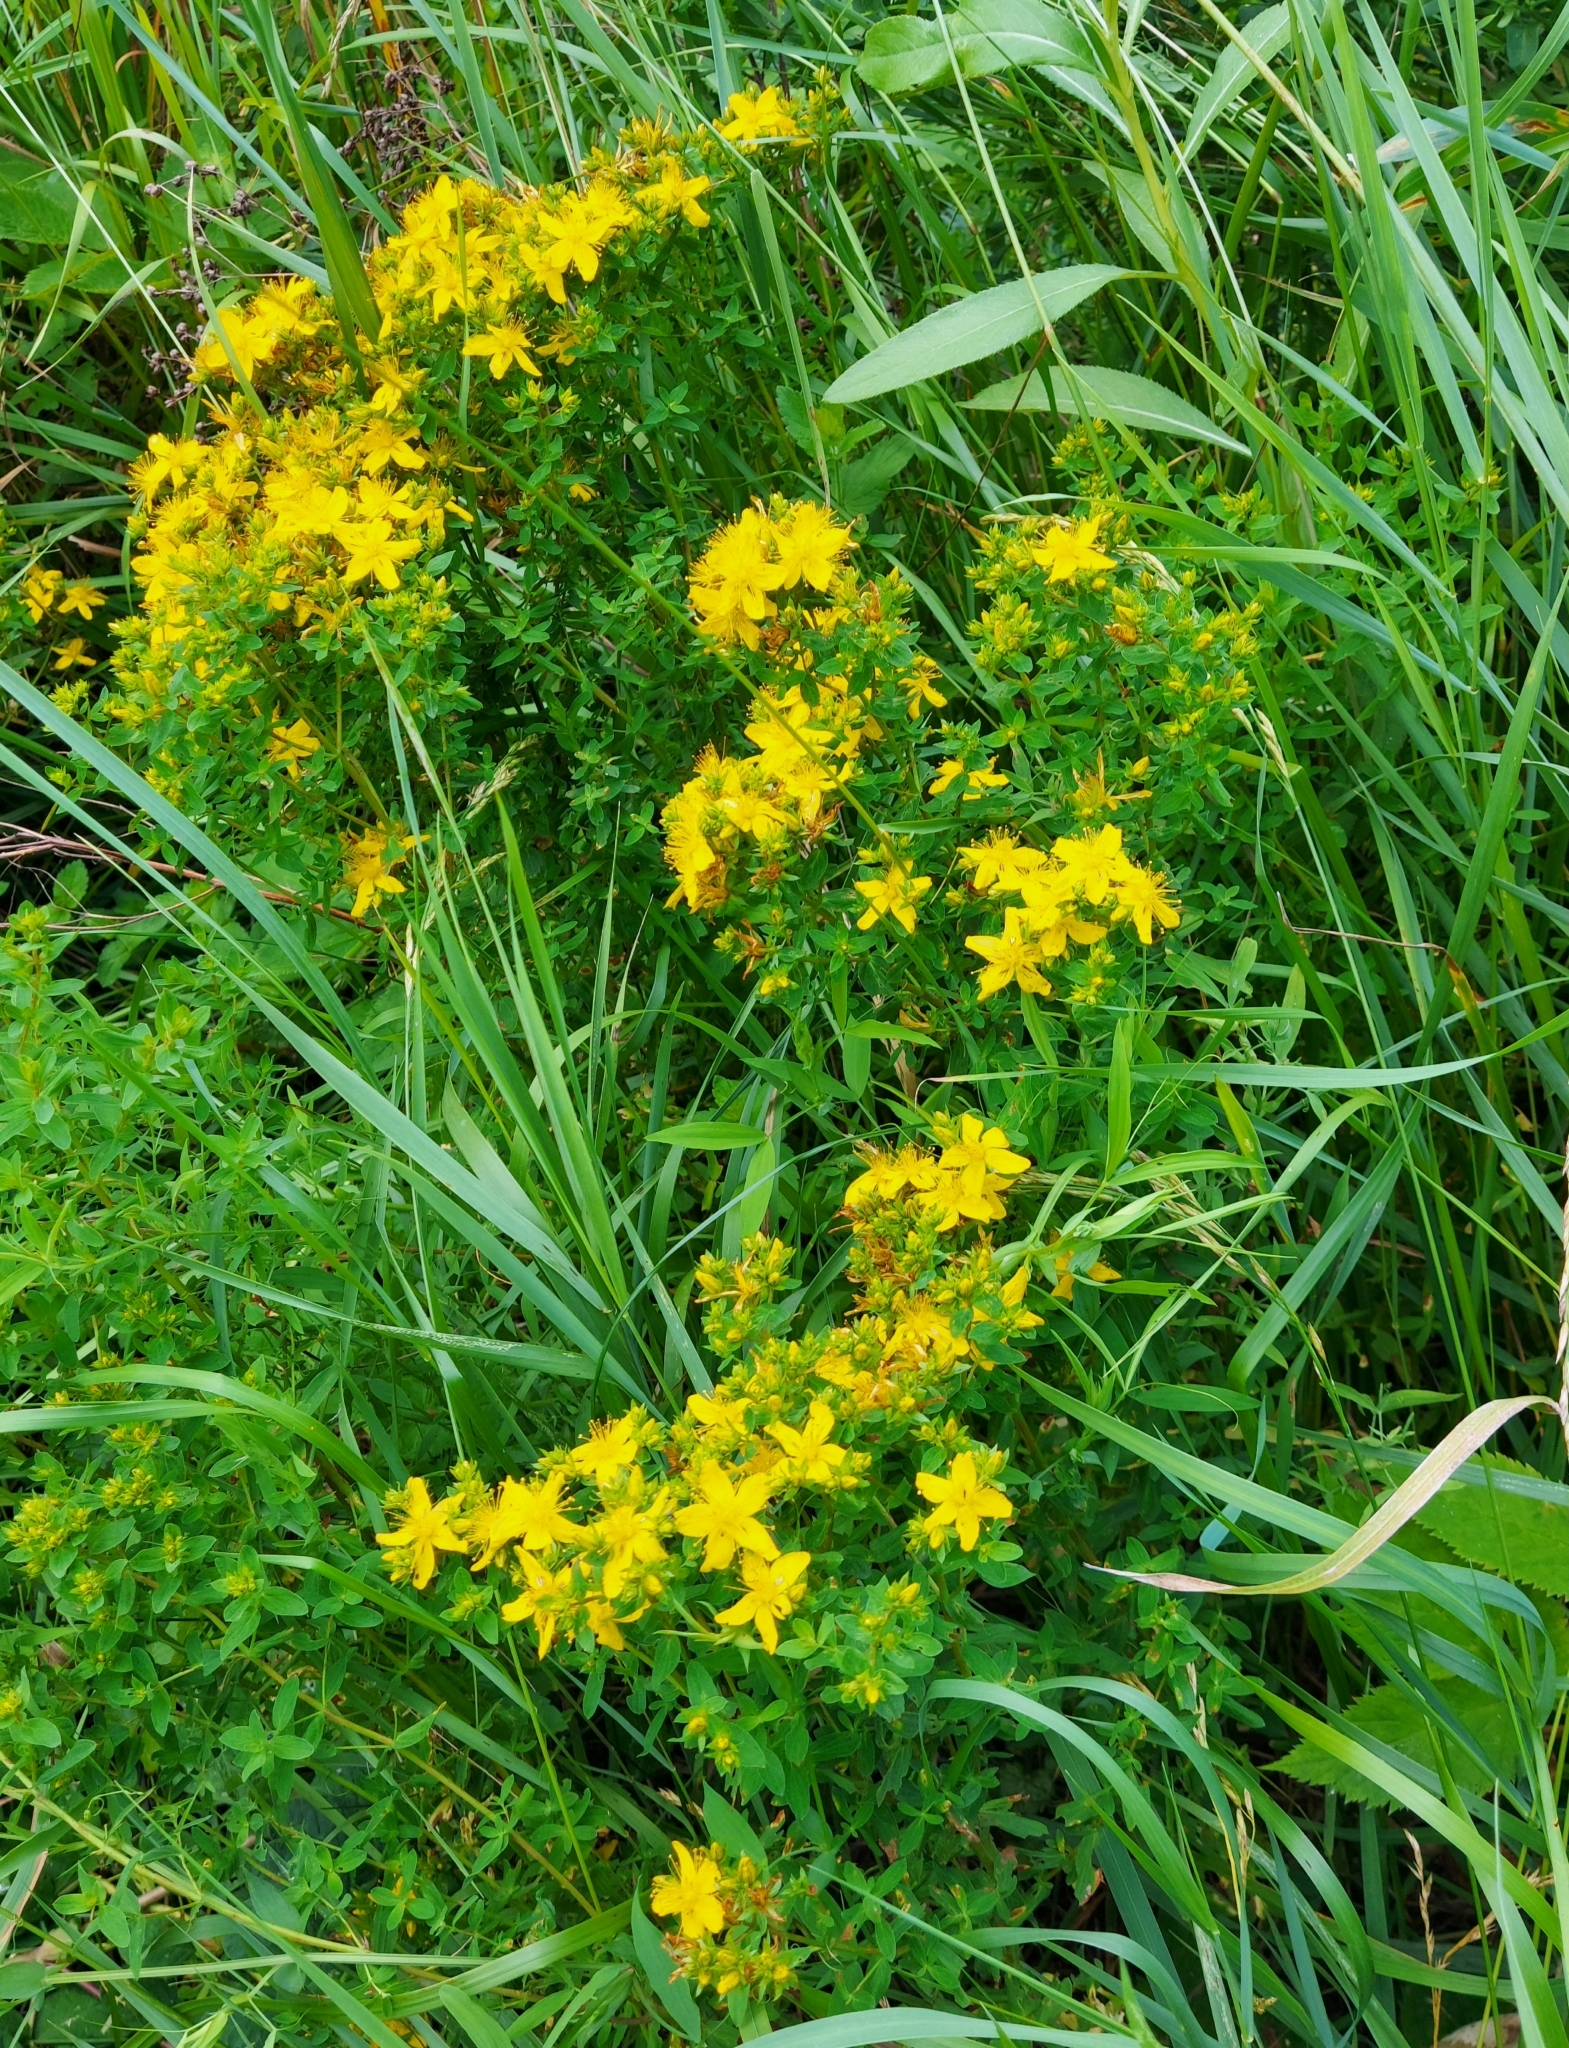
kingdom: Plantae
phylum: Tracheophyta
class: Magnoliopsida
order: Malpighiales
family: Hypericaceae
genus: Hypericum
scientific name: Hypericum perforatum
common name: Common st. johnswort
